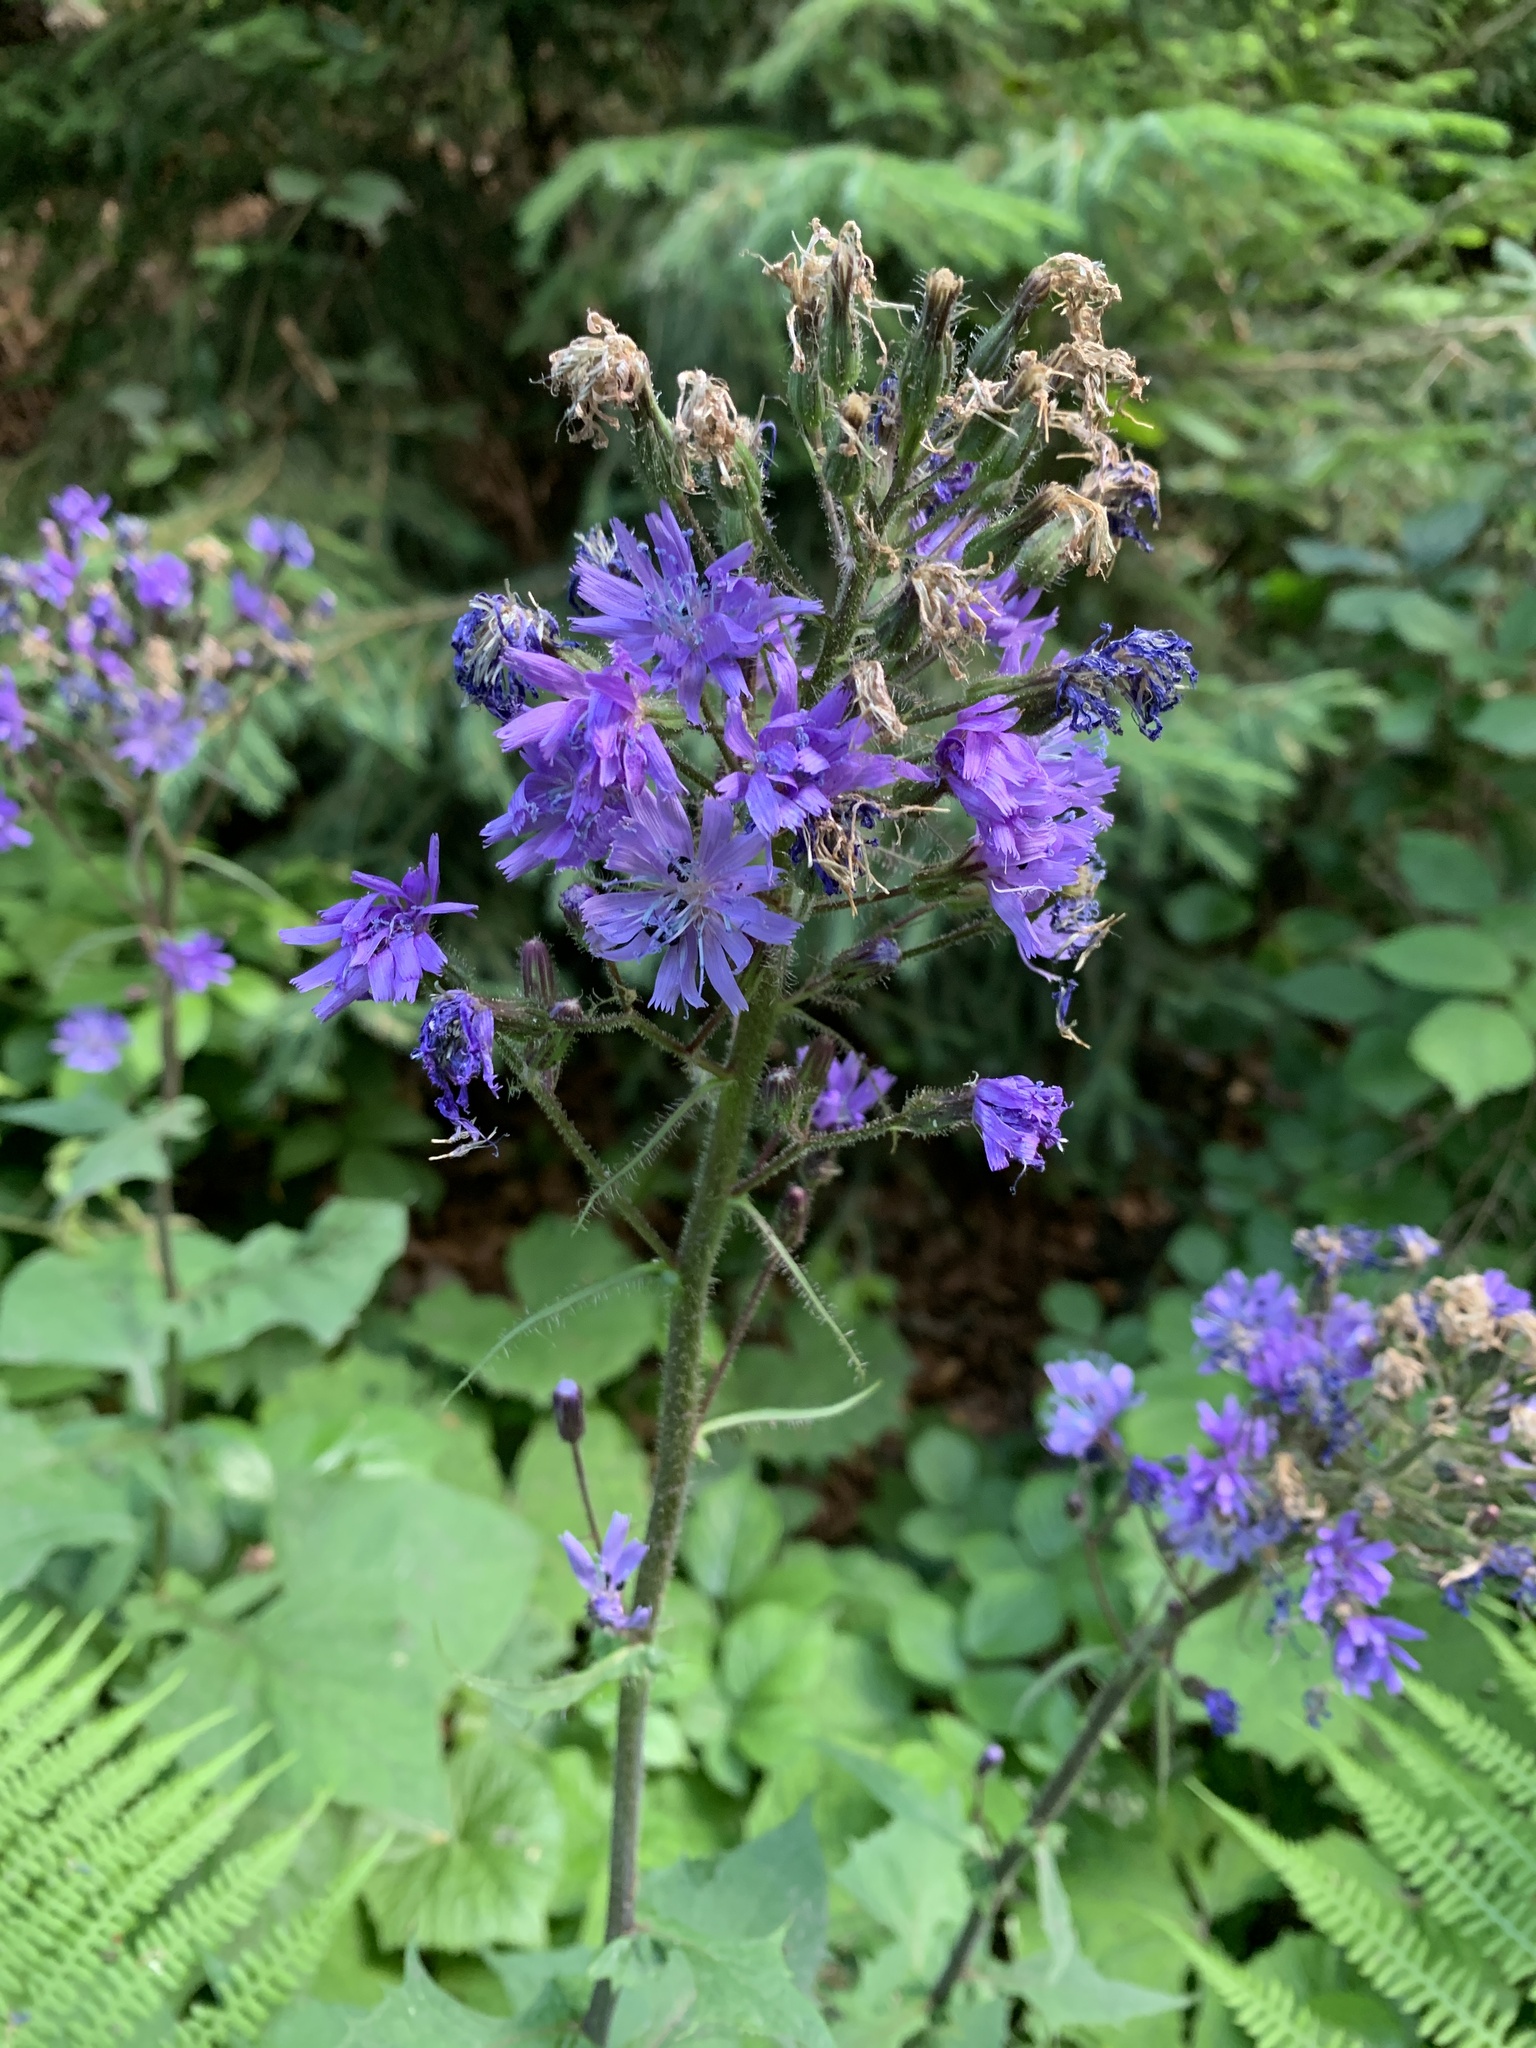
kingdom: Plantae
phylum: Tracheophyta
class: Magnoliopsida
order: Asterales
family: Asteraceae
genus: Cicerbita
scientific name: Cicerbita alpina
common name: Alpine blue-sow-thistle
